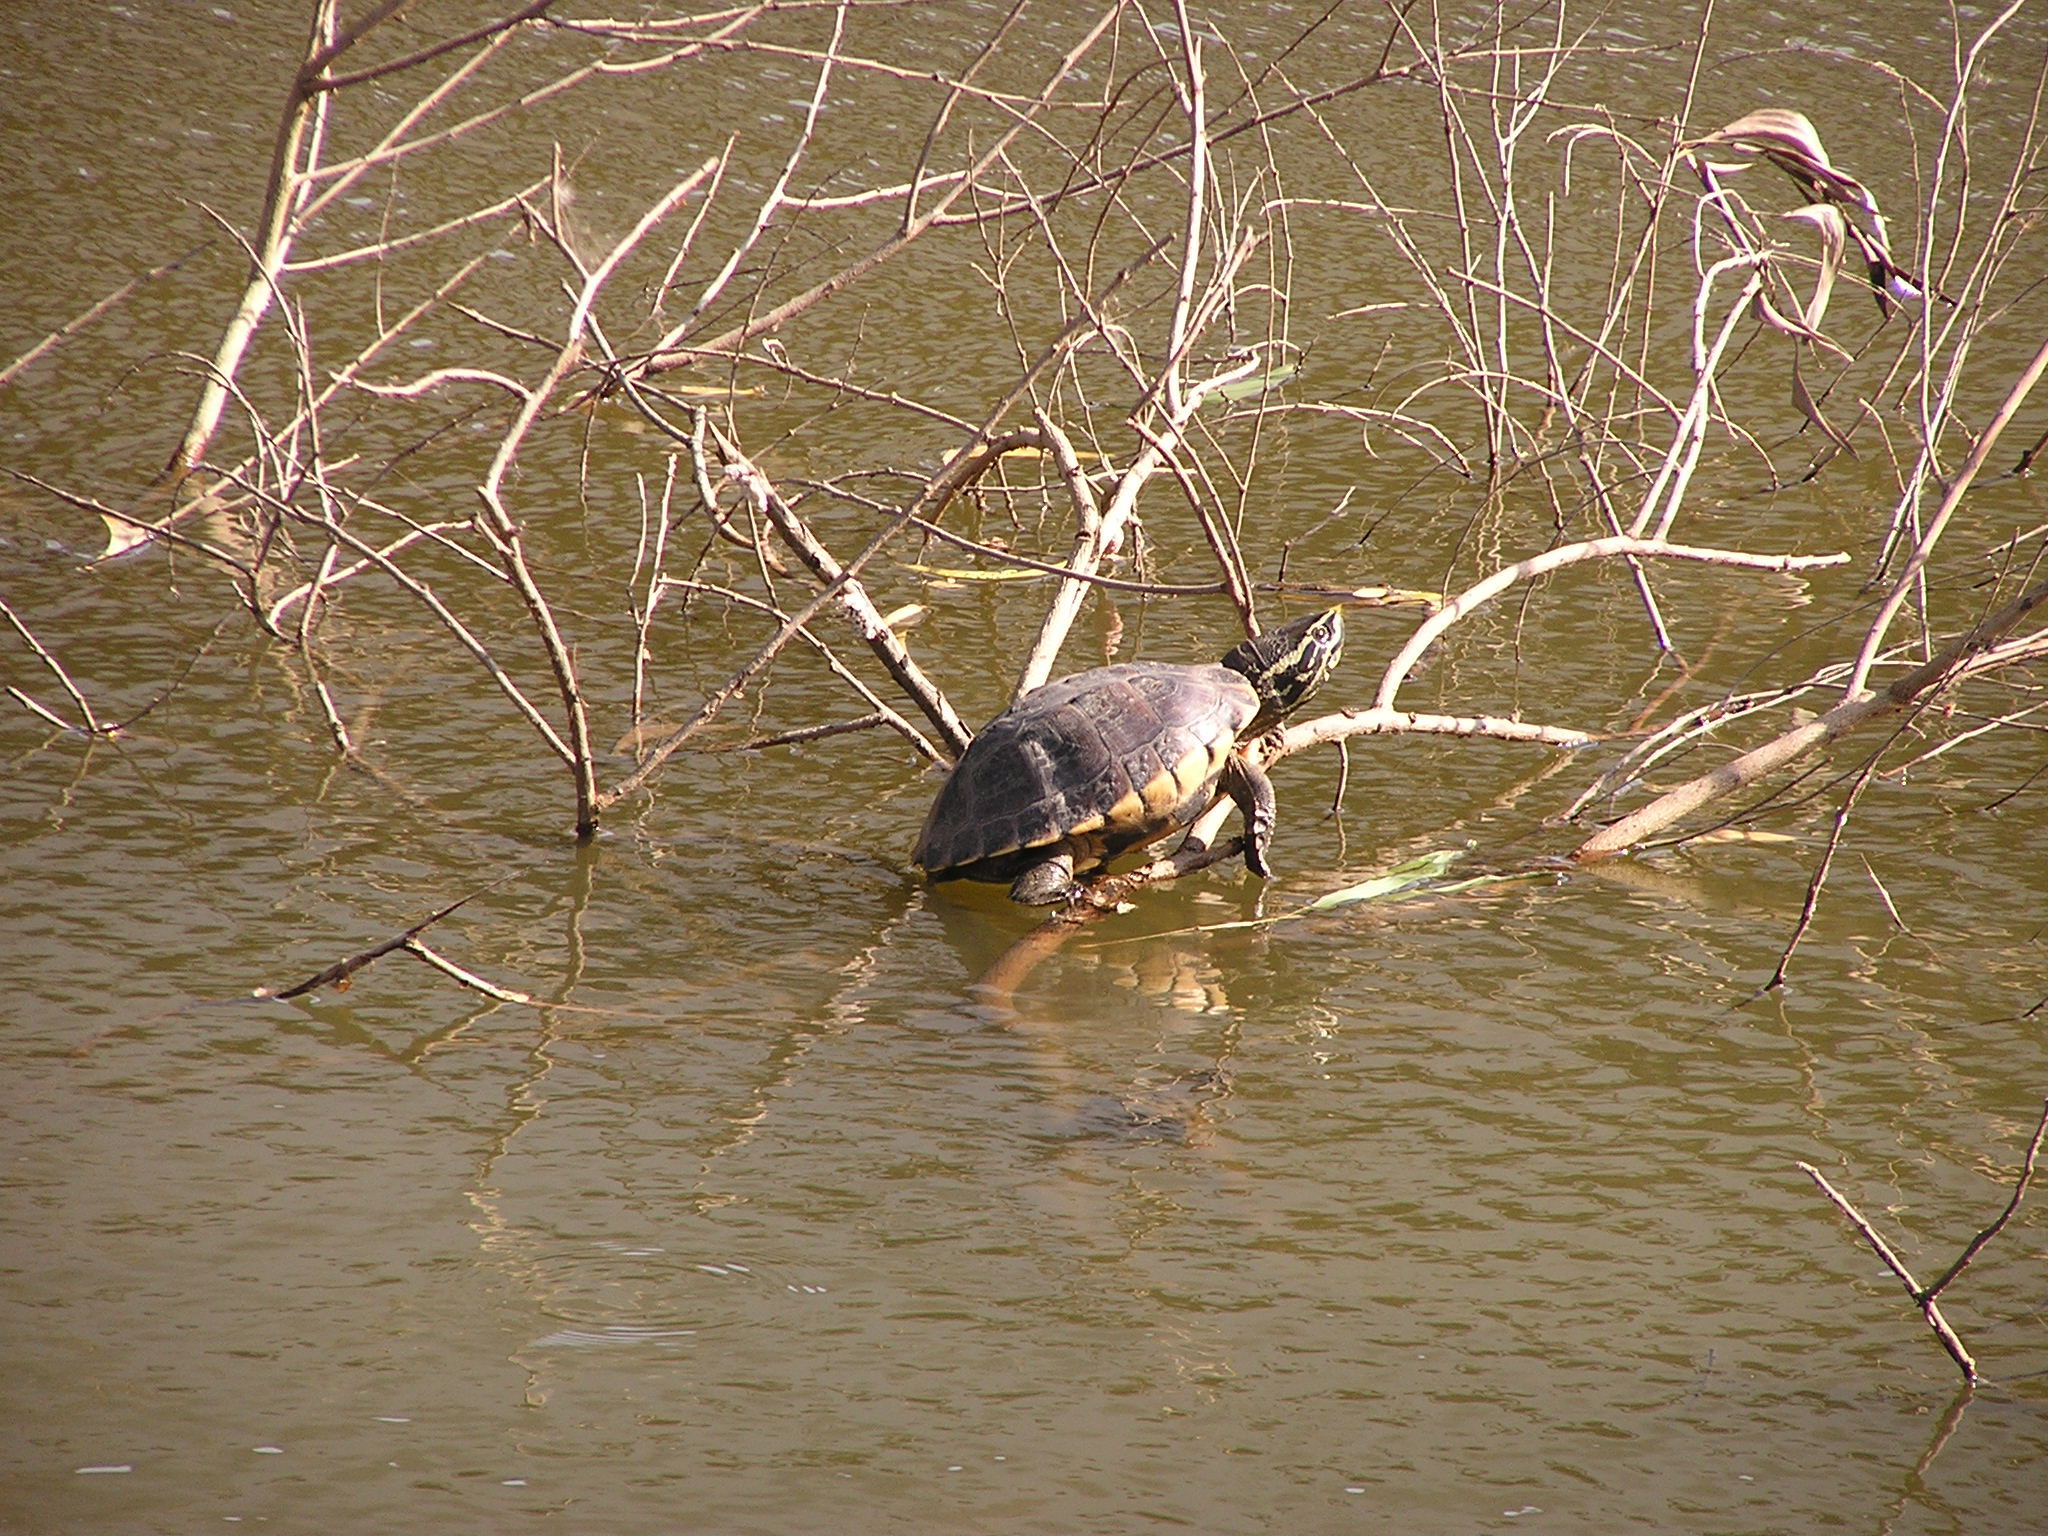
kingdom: Animalia
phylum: Chordata
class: Testudines
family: Geoemydidae
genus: Malayemys
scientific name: Malayemys macrocephala
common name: Malayan snail-eating turtle
